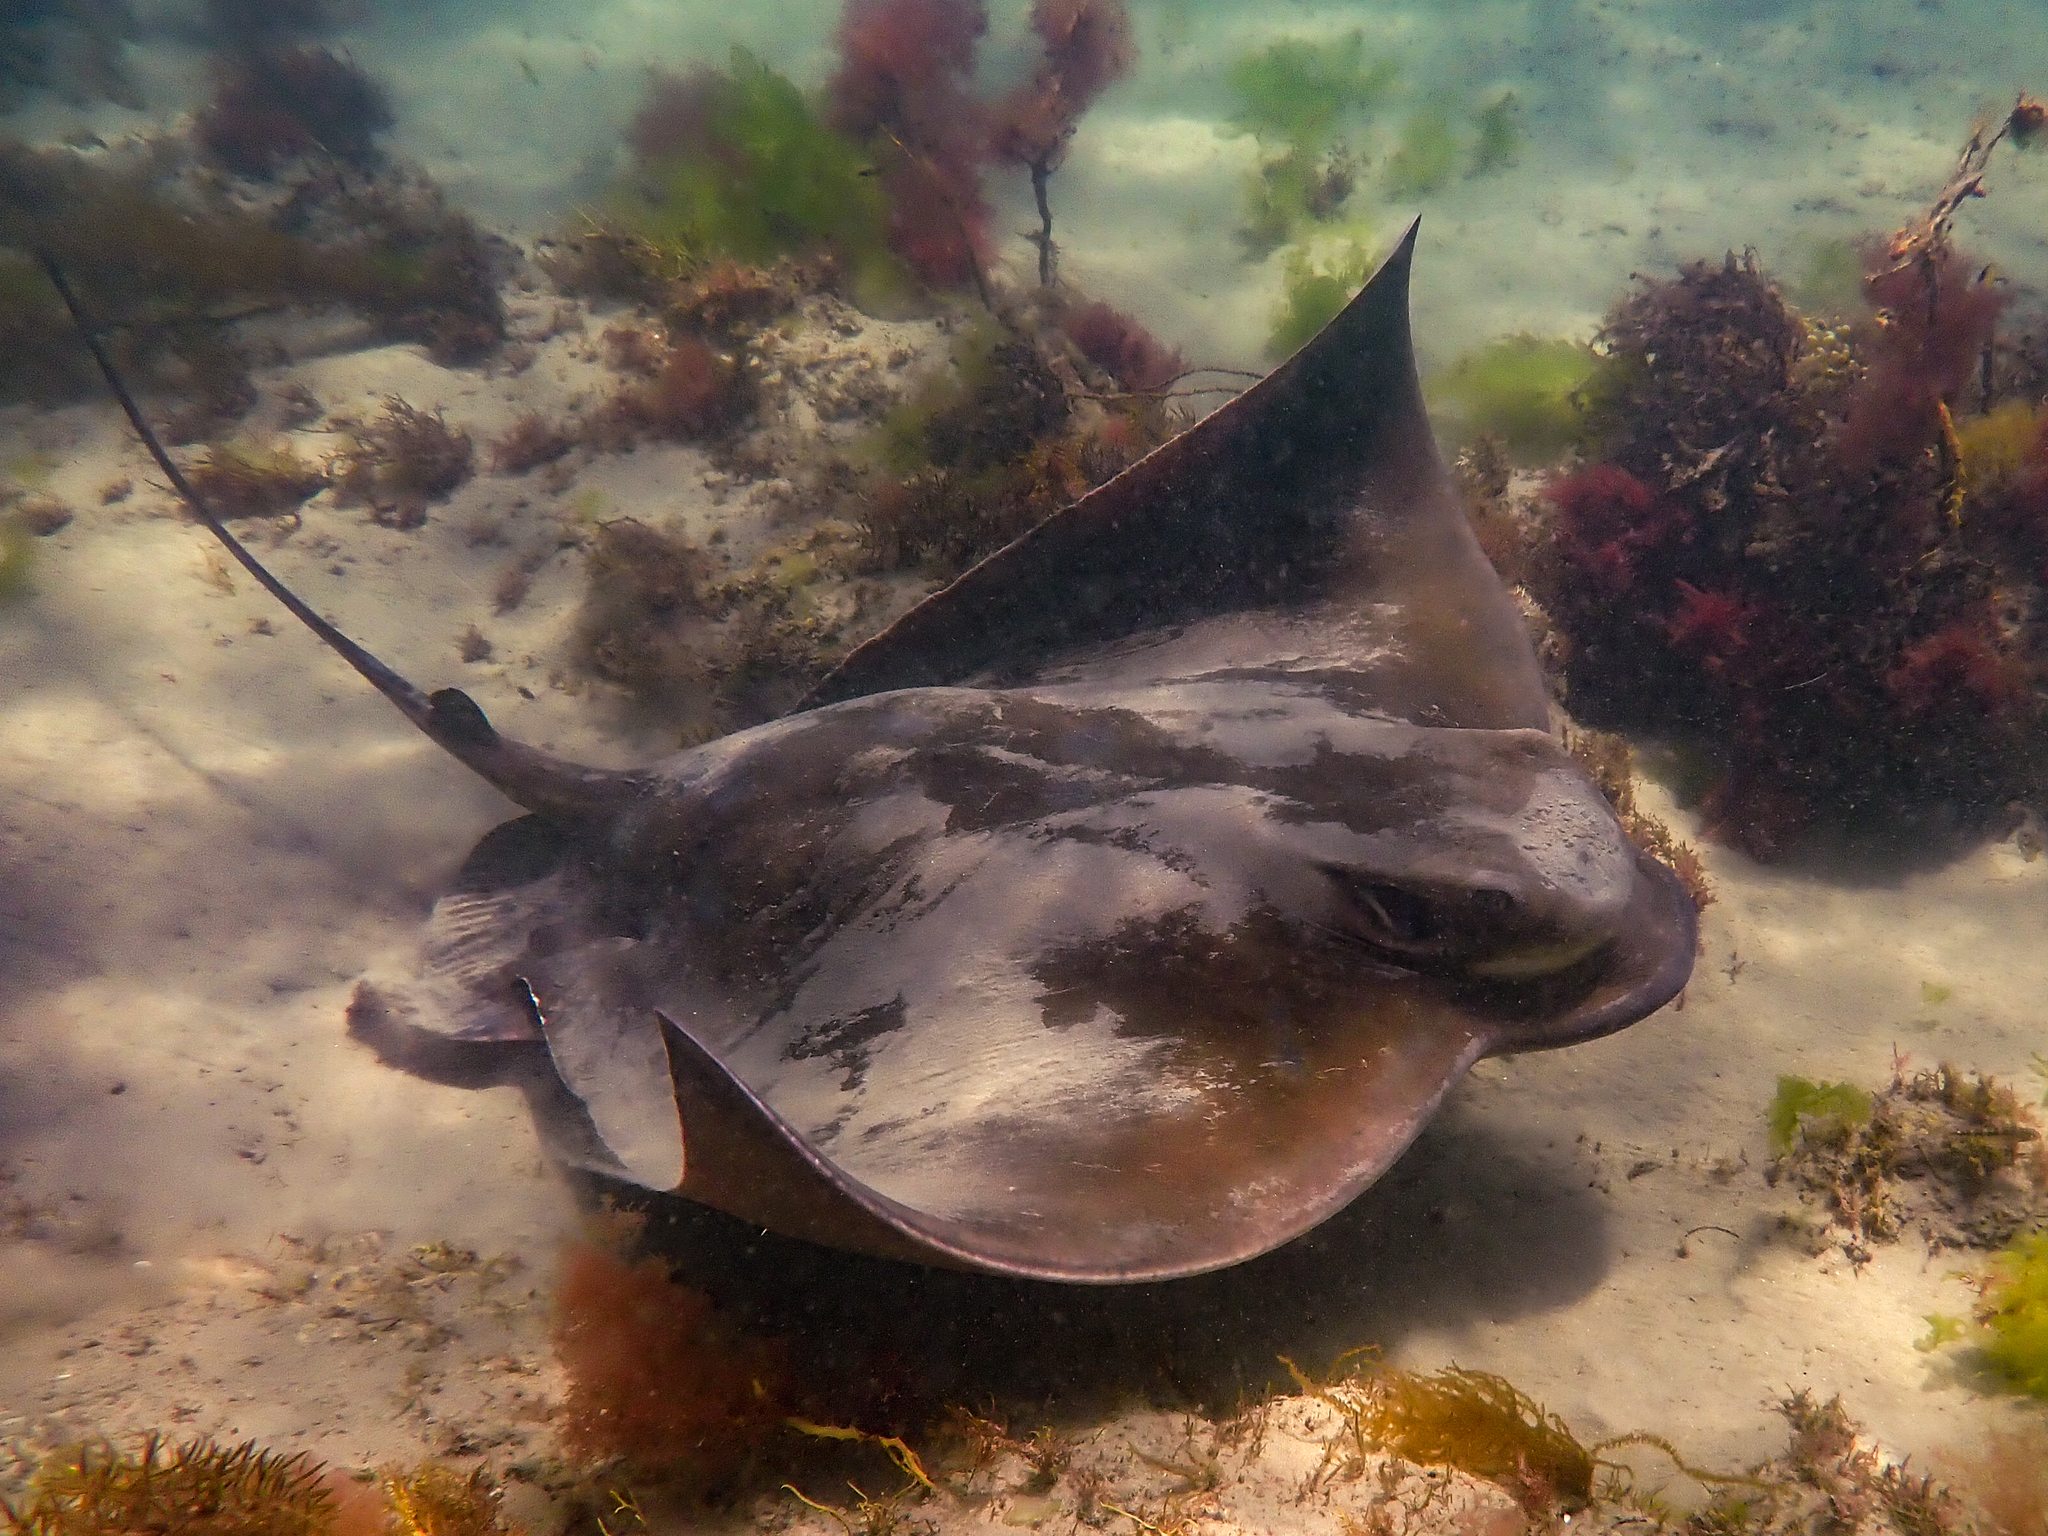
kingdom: Animalia
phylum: Chordata
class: Elasmobranchii
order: Myliobatiformes
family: Myliobatidae
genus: Myliobatis
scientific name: Myliobatis tenuicaudatus
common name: Eagle ray
